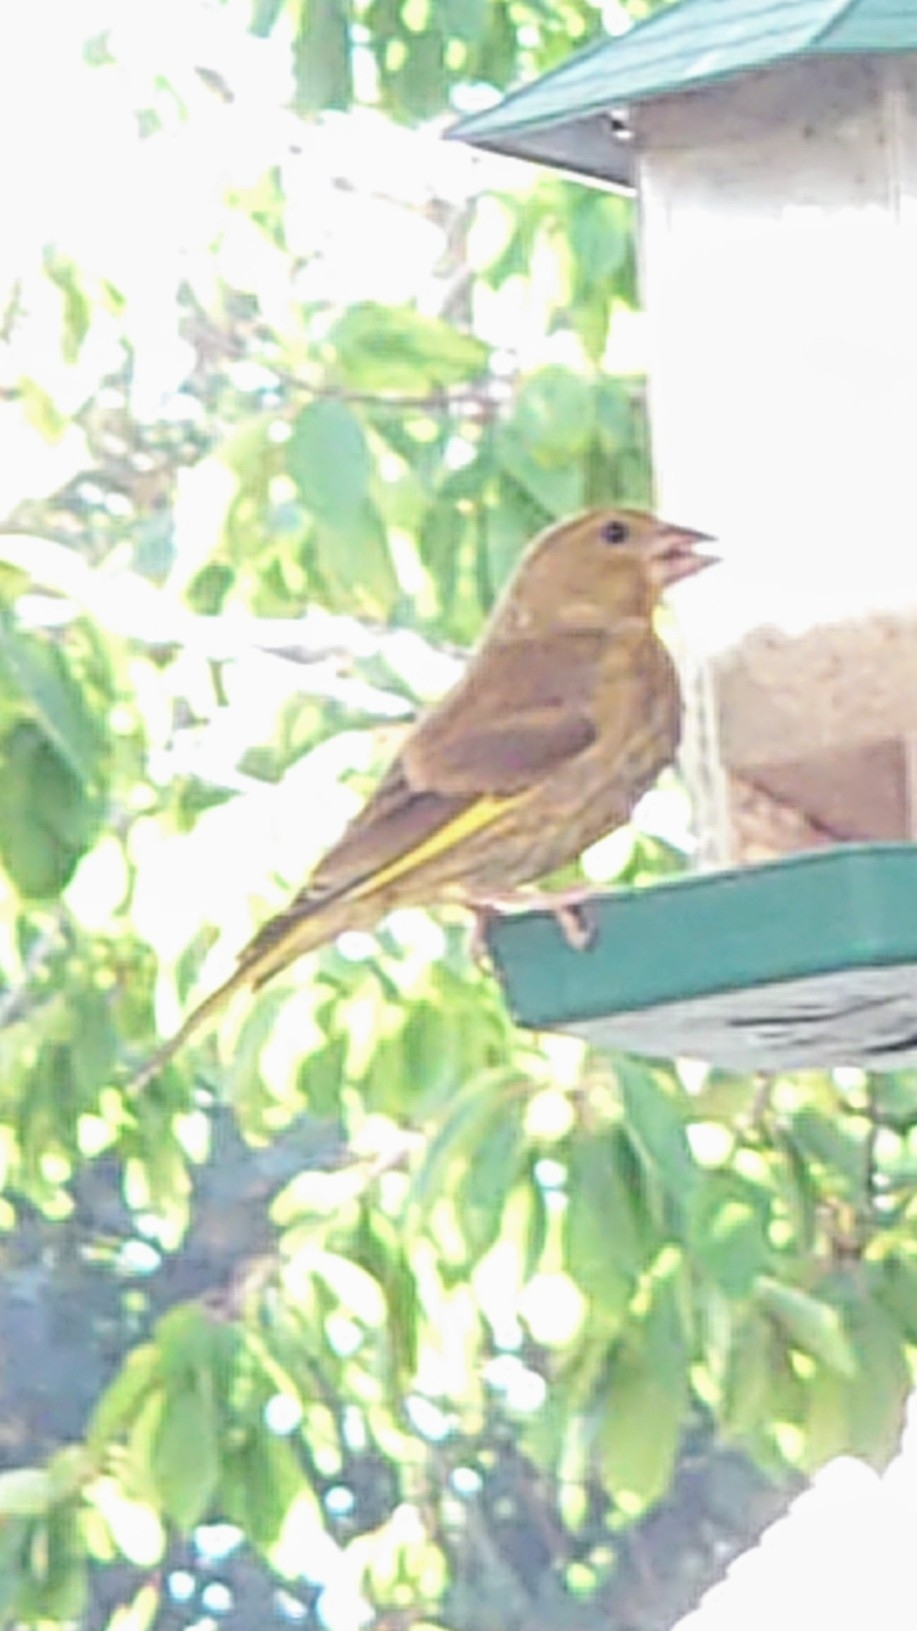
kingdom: Plantae
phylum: Tracheophyta
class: Liliopsida
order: Poales
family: Poaceae
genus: Chloris
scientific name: Chloris chloris
